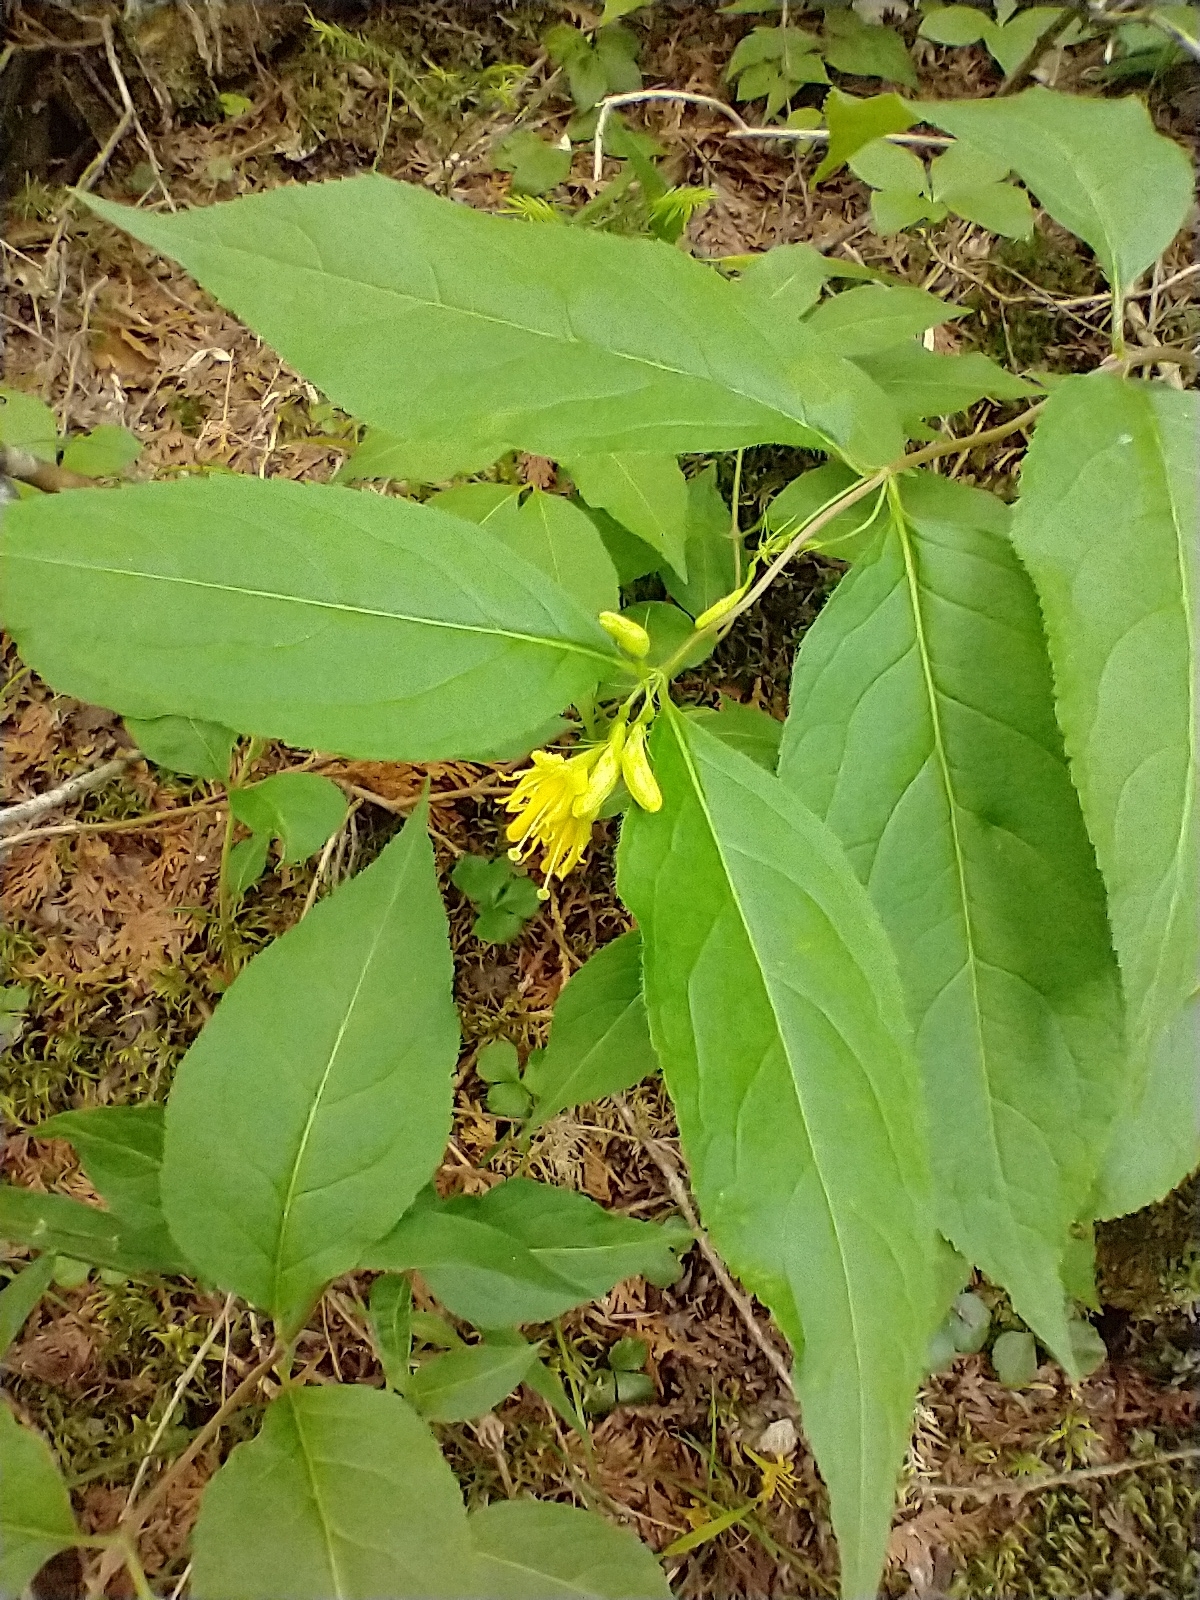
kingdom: Plantae
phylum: Tracheophyta
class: Magnoliopsida
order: Dipsacales
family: Caprifoliaceae
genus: Diervilla
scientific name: Diervilla lonicera
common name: Bush-honeysuckle
